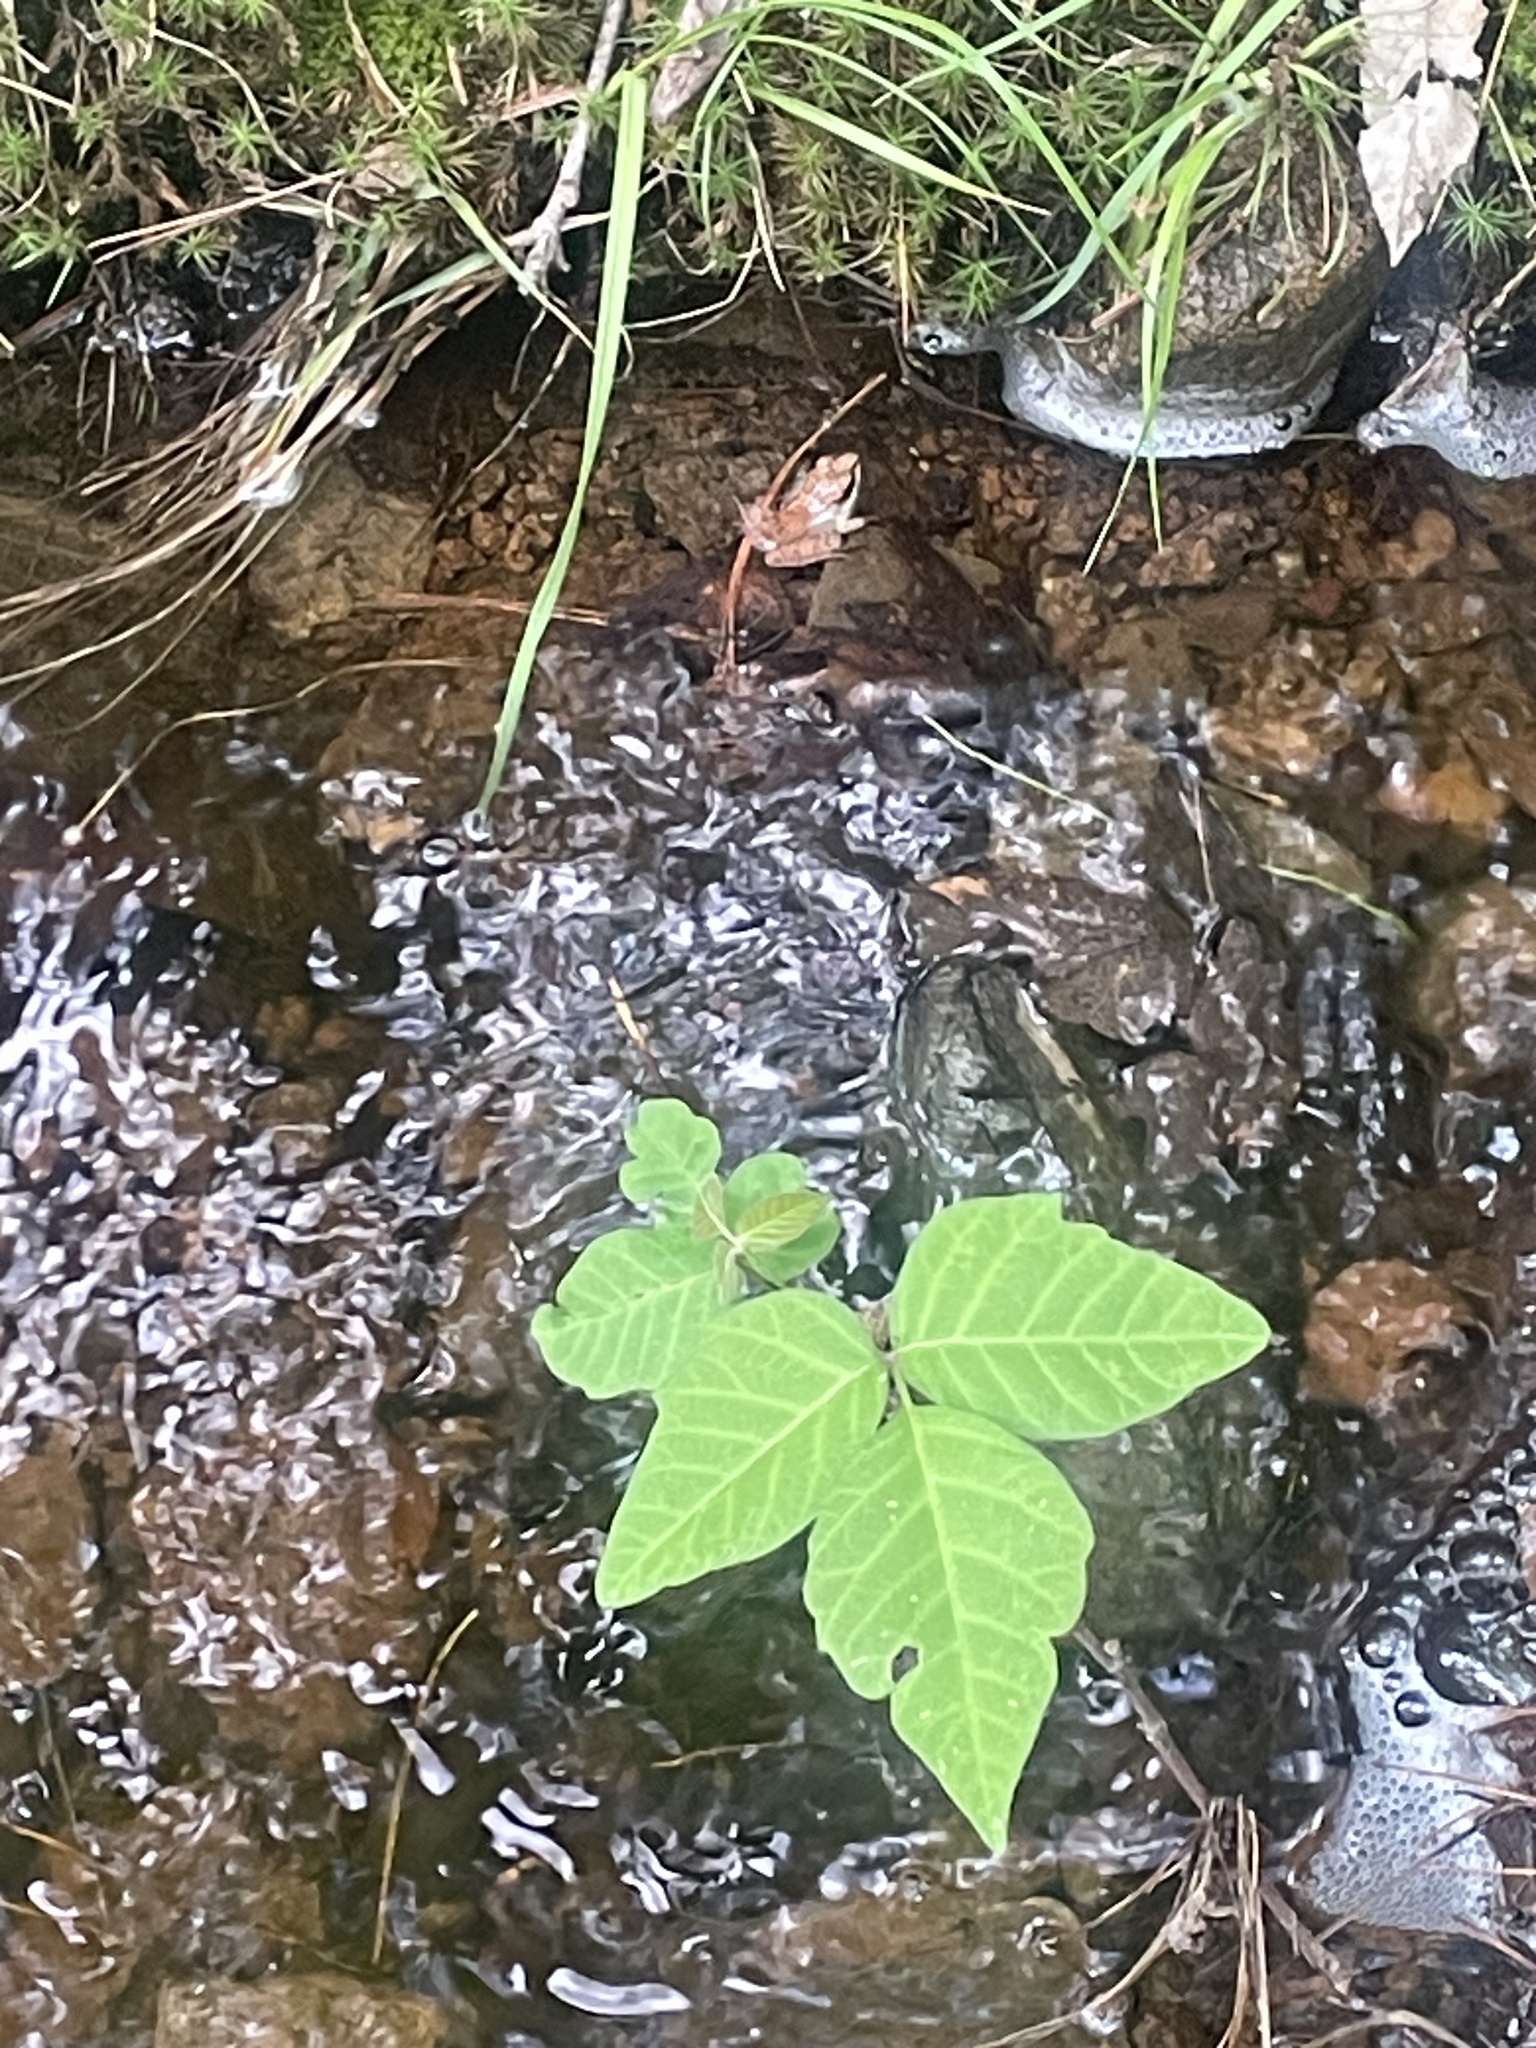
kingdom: Animalia
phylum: Chordata
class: Amphibia
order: Anura
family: Ranidae
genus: Lithobates
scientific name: Lithobates sylvaticus
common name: Wood frog
